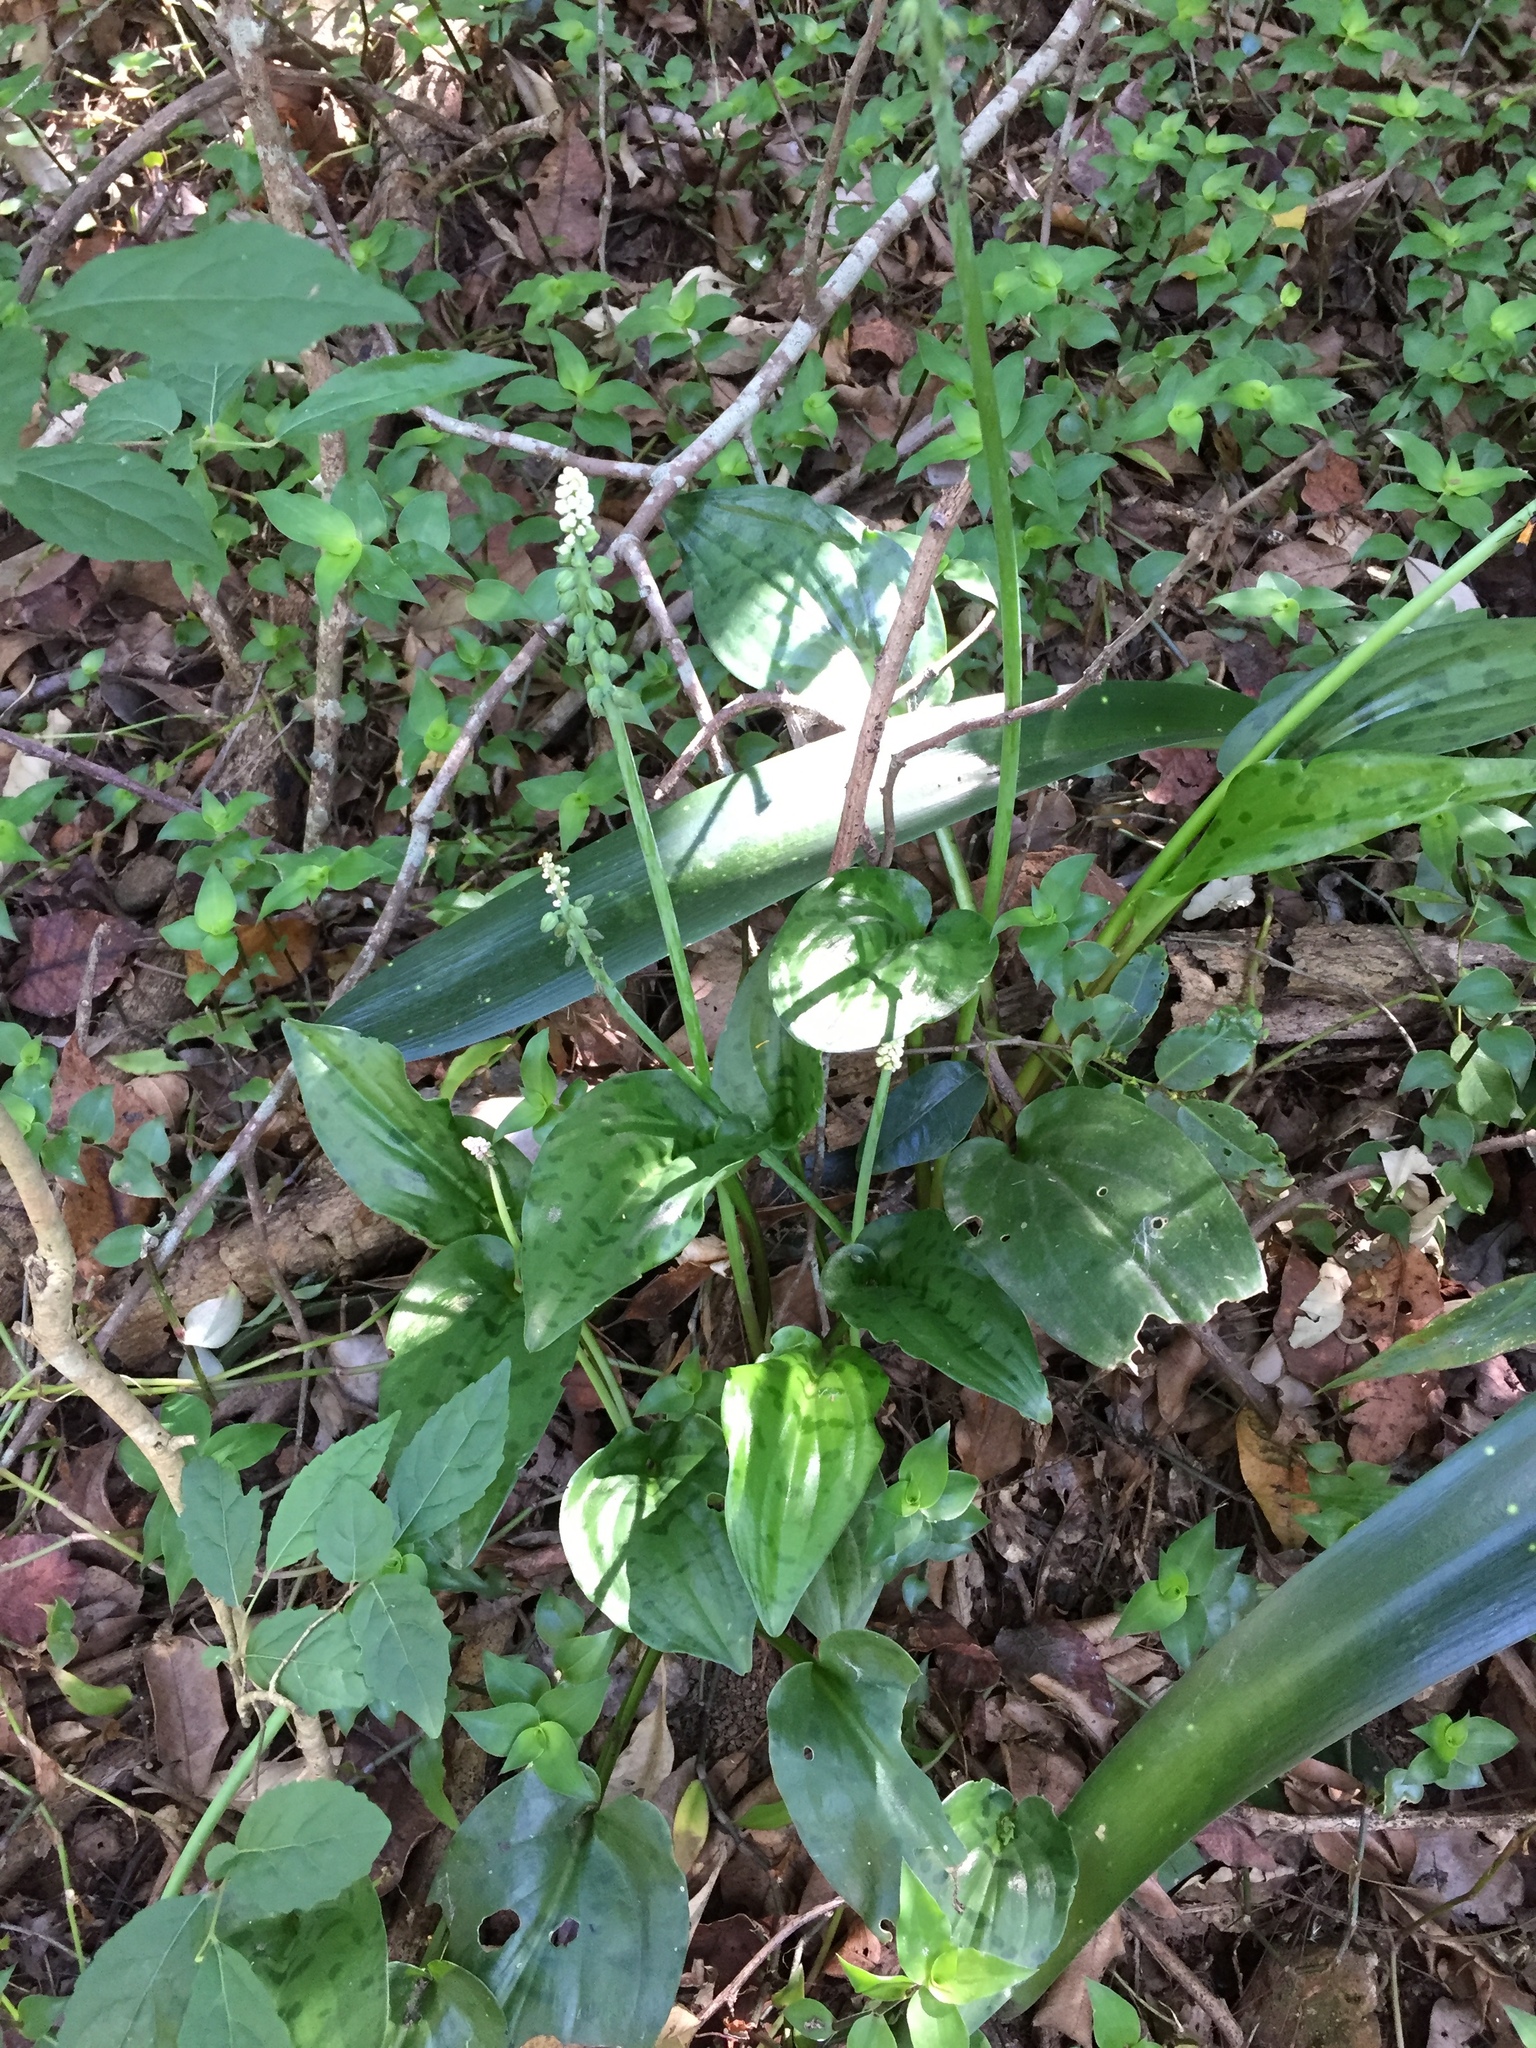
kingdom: Plantae
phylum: Tracheophyta
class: Liliopsida
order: Asparagales
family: Asparagaceae
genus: Drimiopsis
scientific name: Drimiopsis maculata
